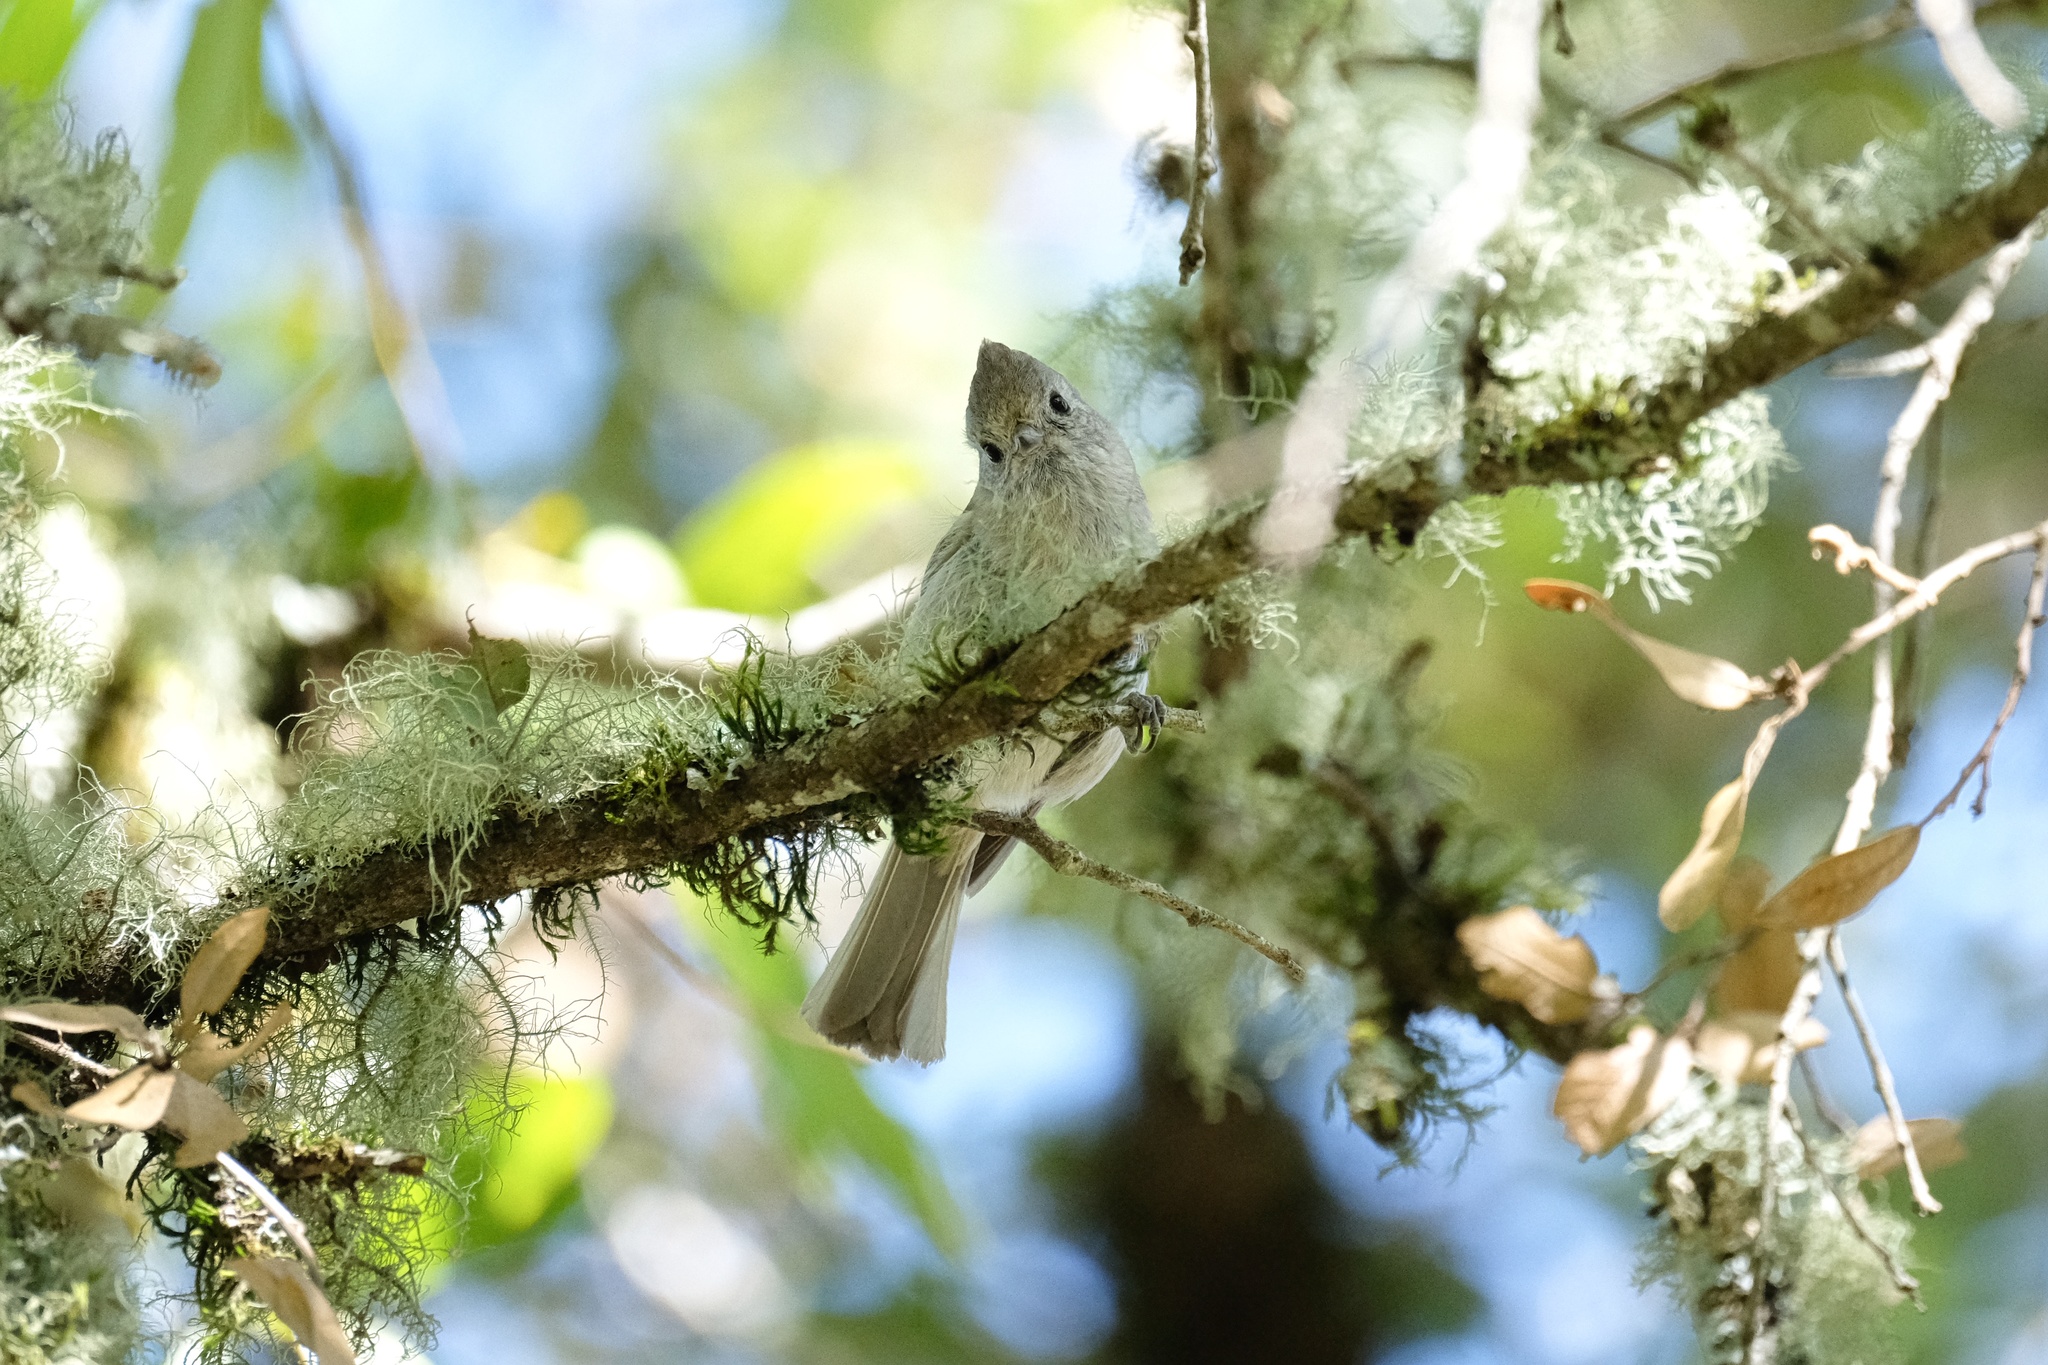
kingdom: Animalia
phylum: Chordata
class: Aves
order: Passeriformes
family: Paridae
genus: Baeolophus
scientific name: Baeolophus inornatus
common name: Oak titmouse
